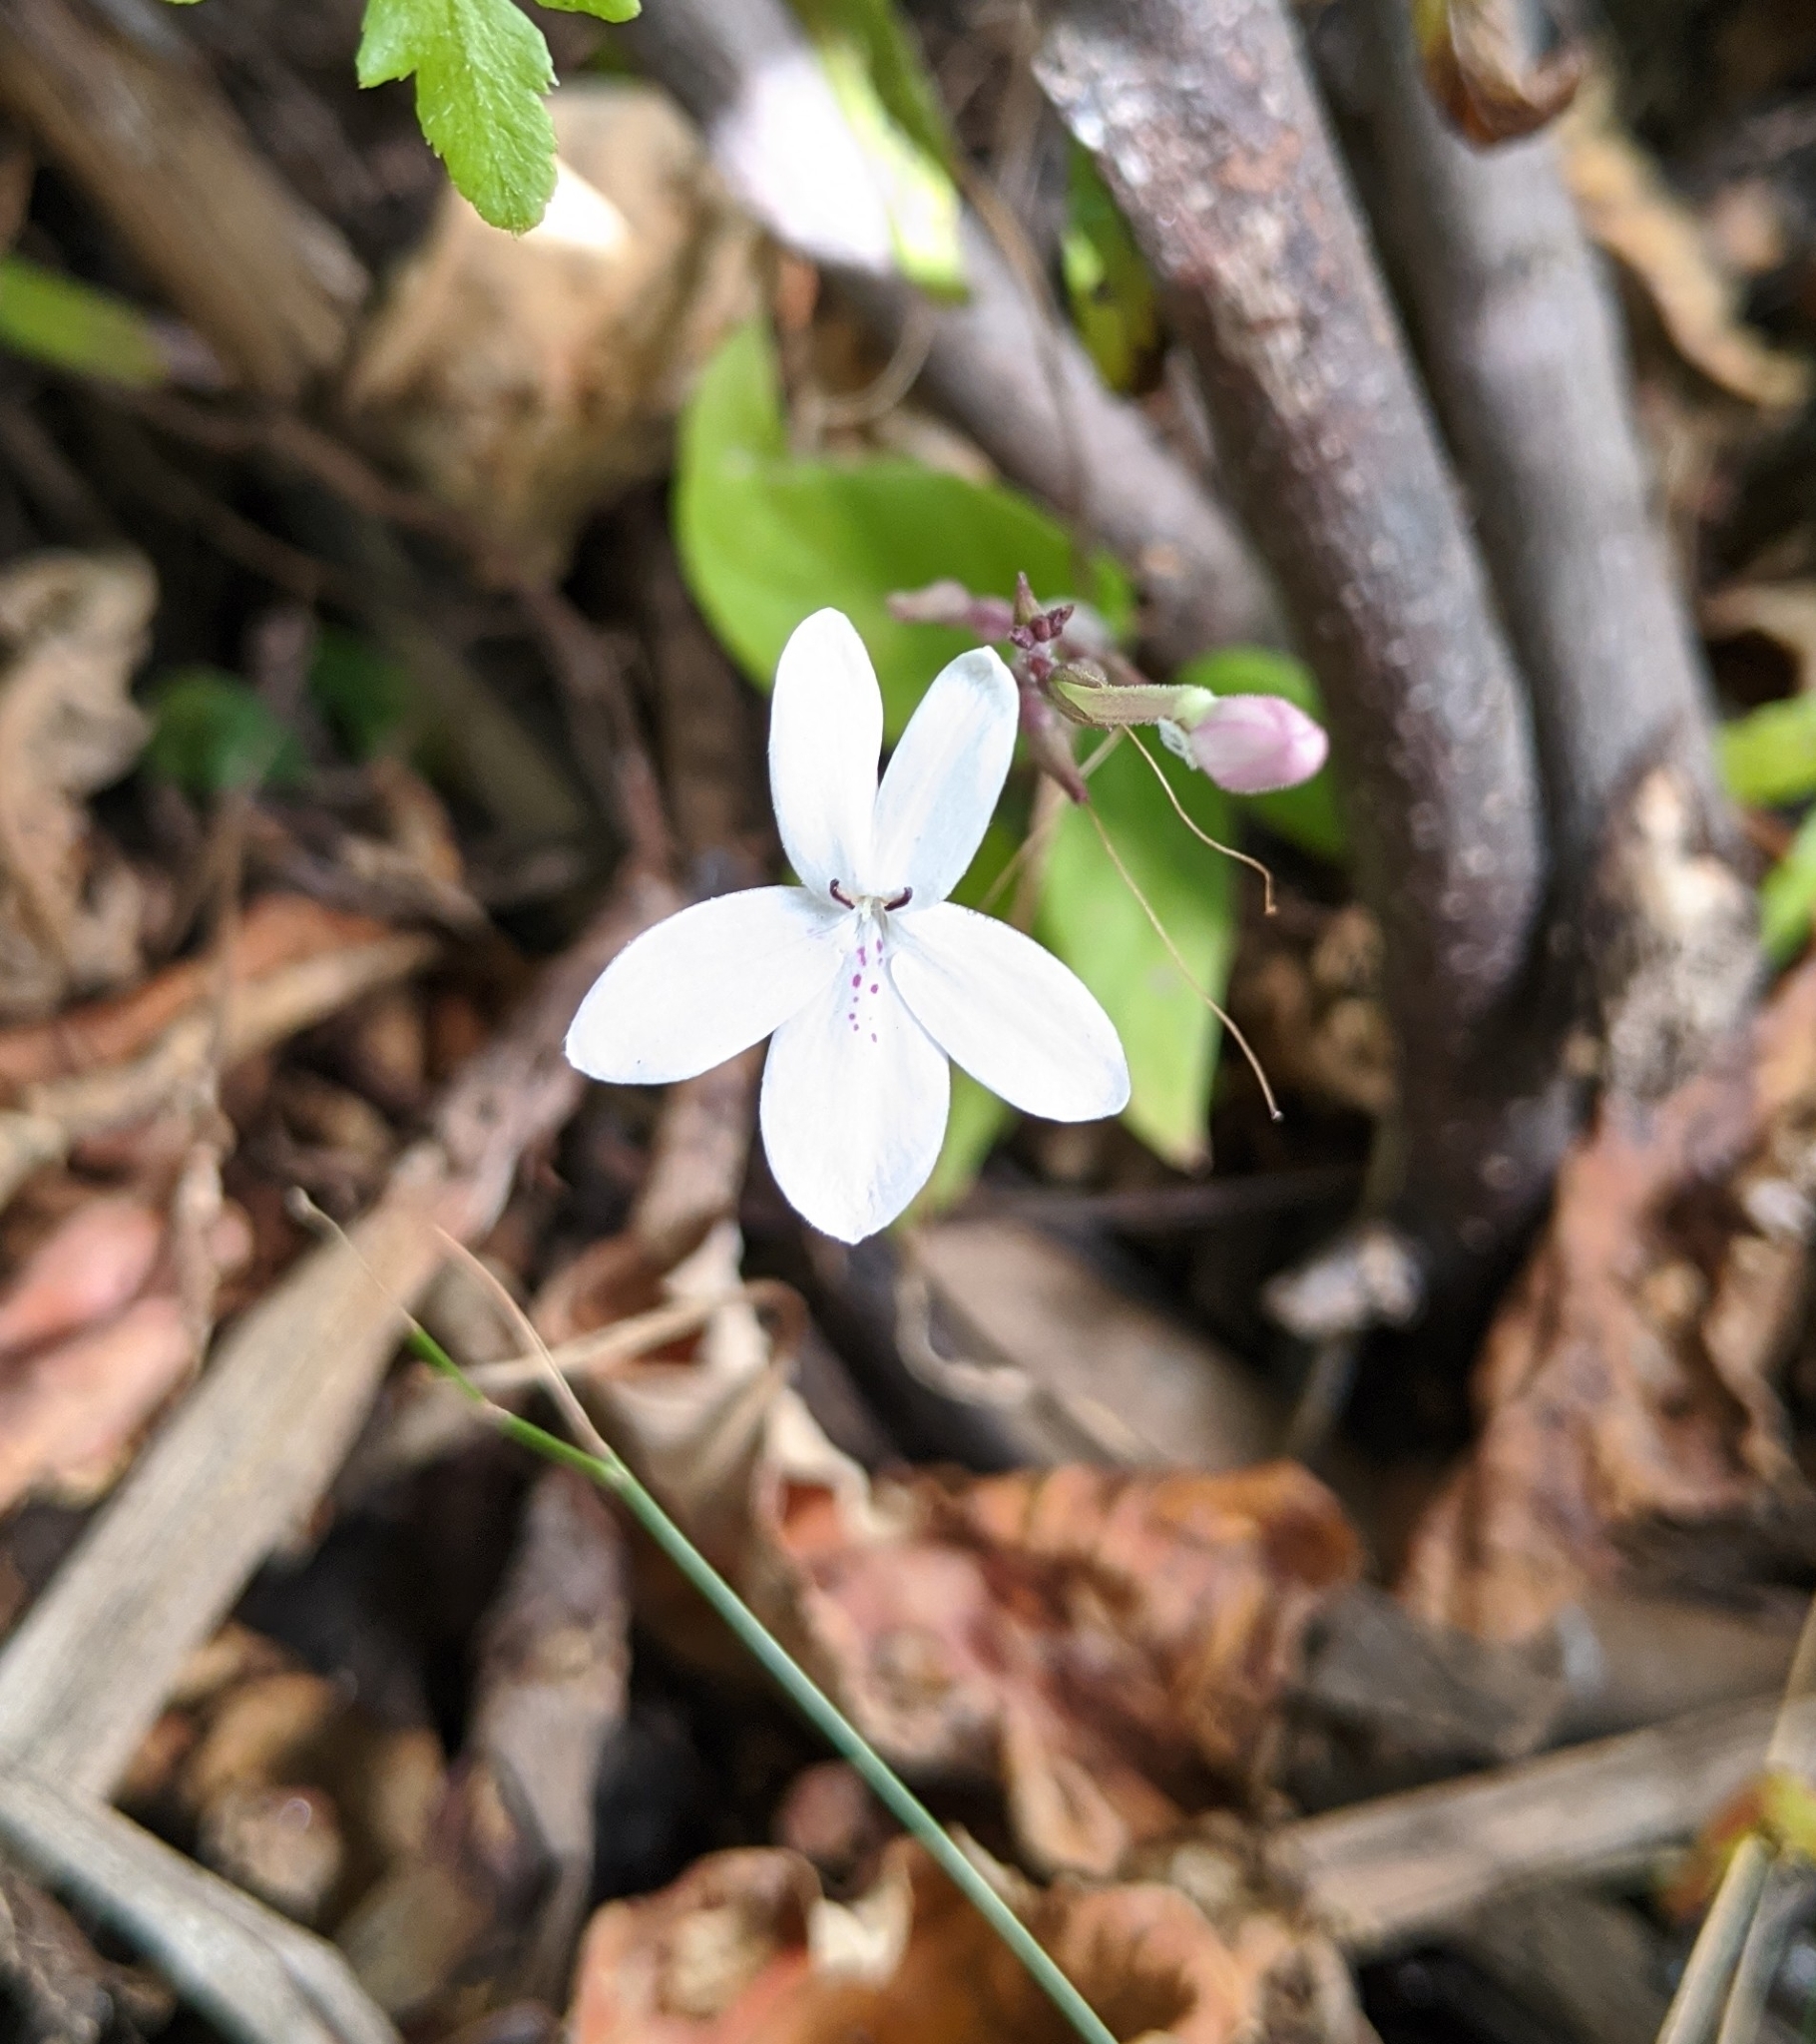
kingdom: Plantae
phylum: Tracheophyta
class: Magnoliopsida
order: Lamiales
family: Acanthaceae
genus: Pseuderanthemum
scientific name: Pseuderanthemum variabile
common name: Night and afternoon
